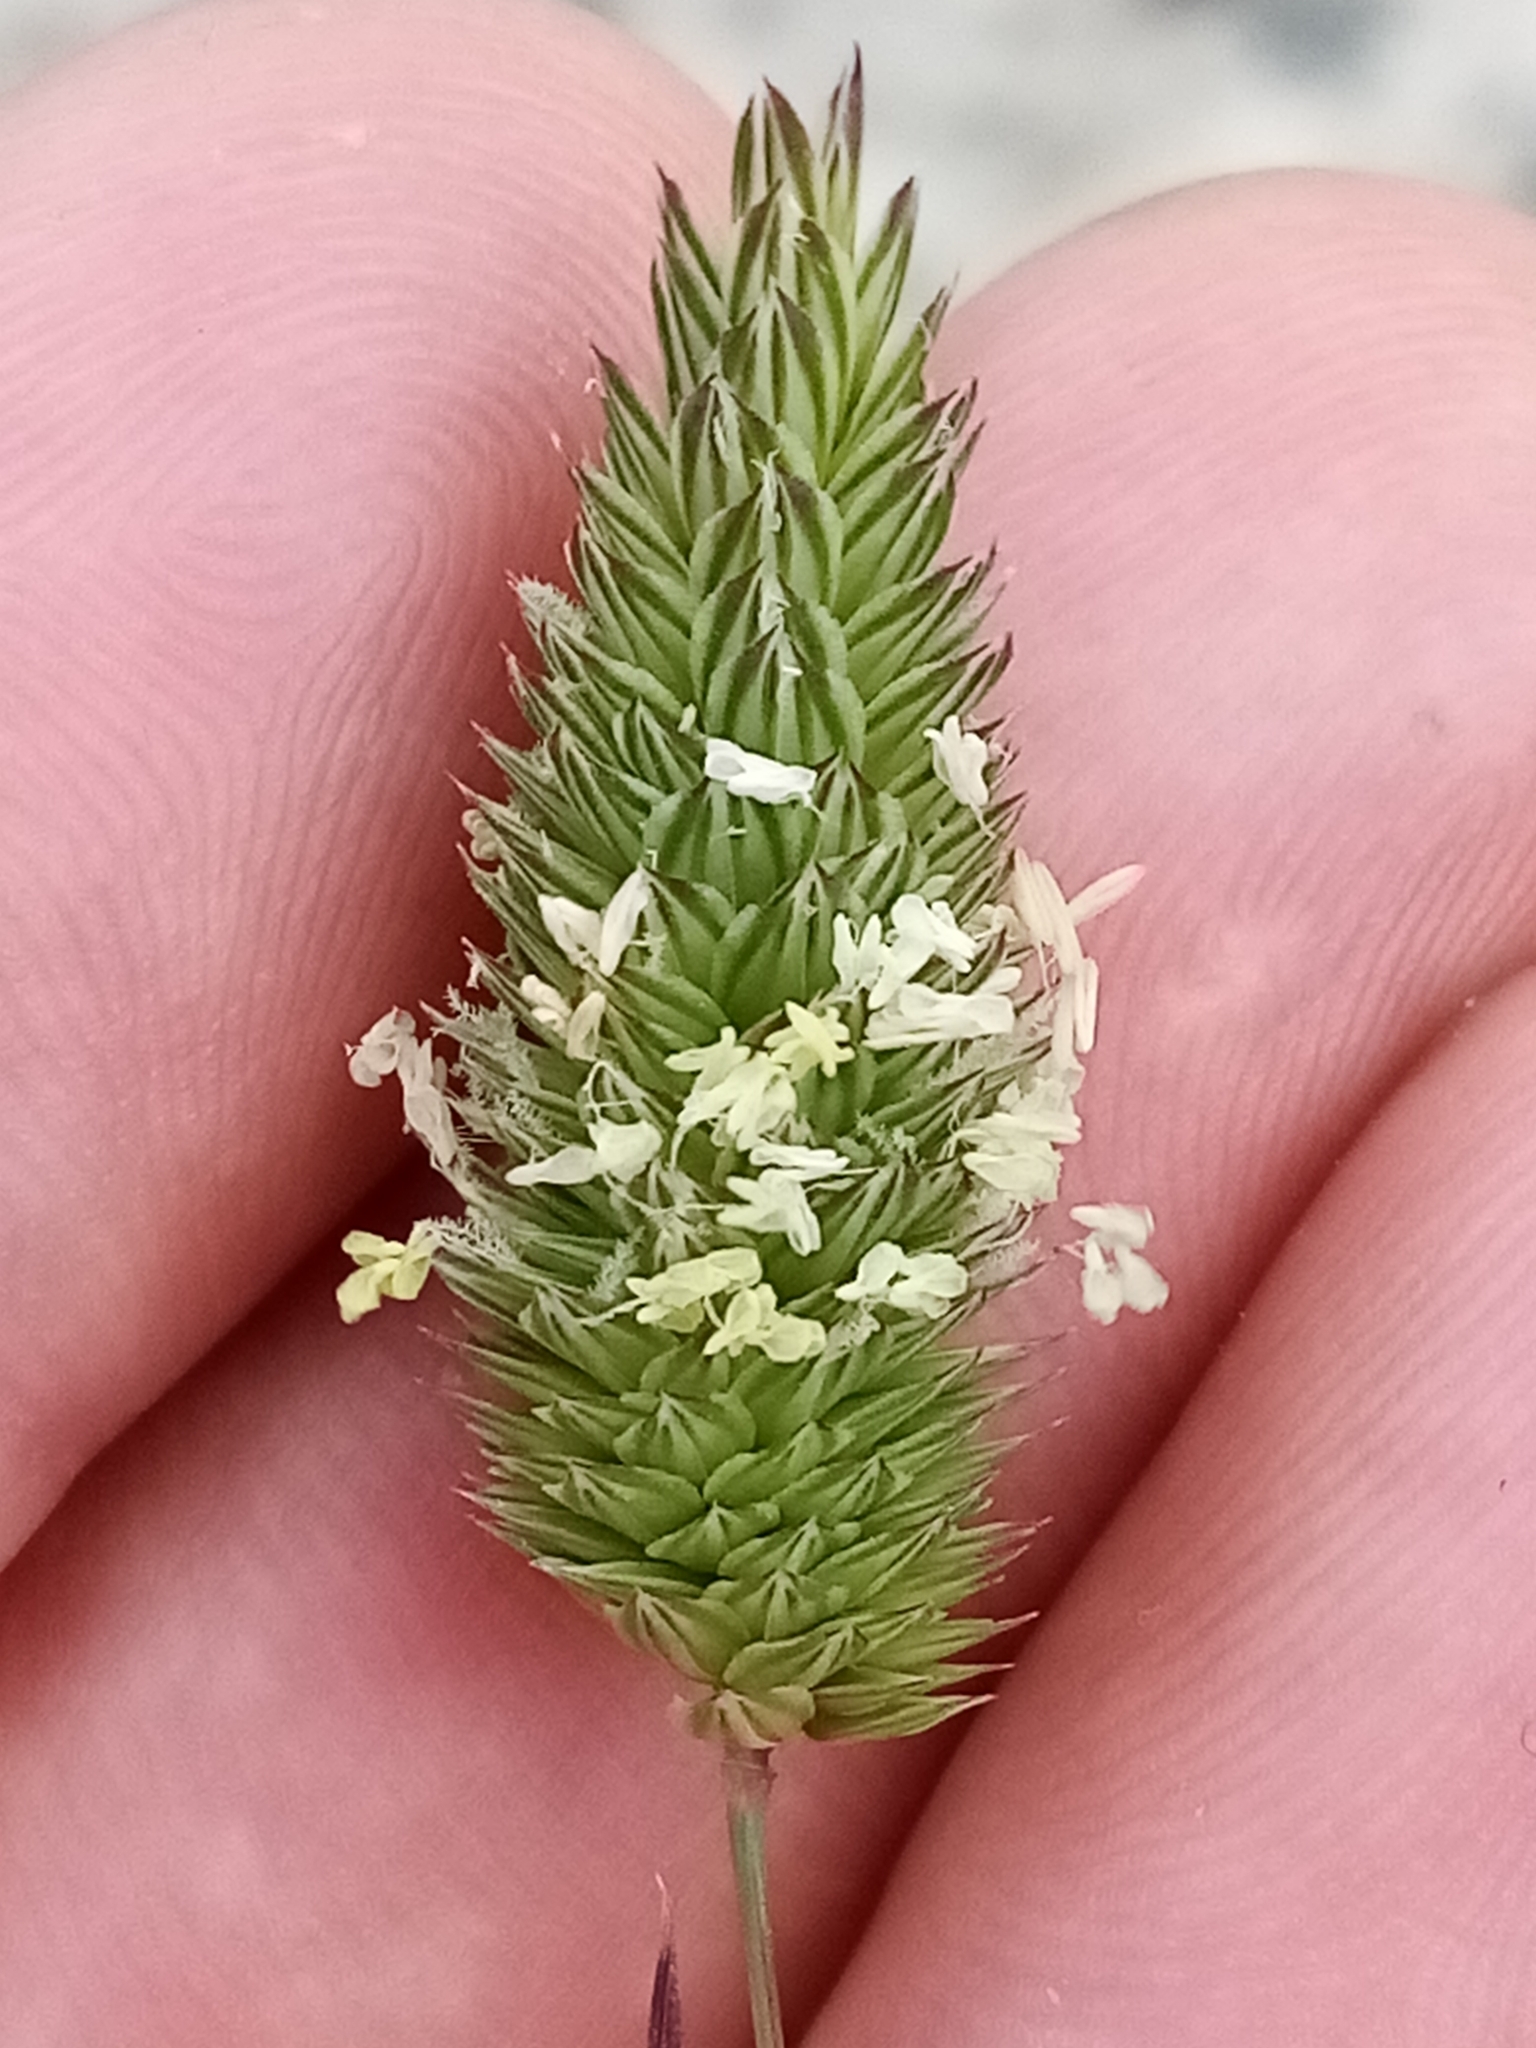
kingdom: Plantae
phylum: Tracheophyta
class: Liliopsida
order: Poales
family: Poaceae
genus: Phalaris
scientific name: Phalaris canariensis
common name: Annual canarygrass
